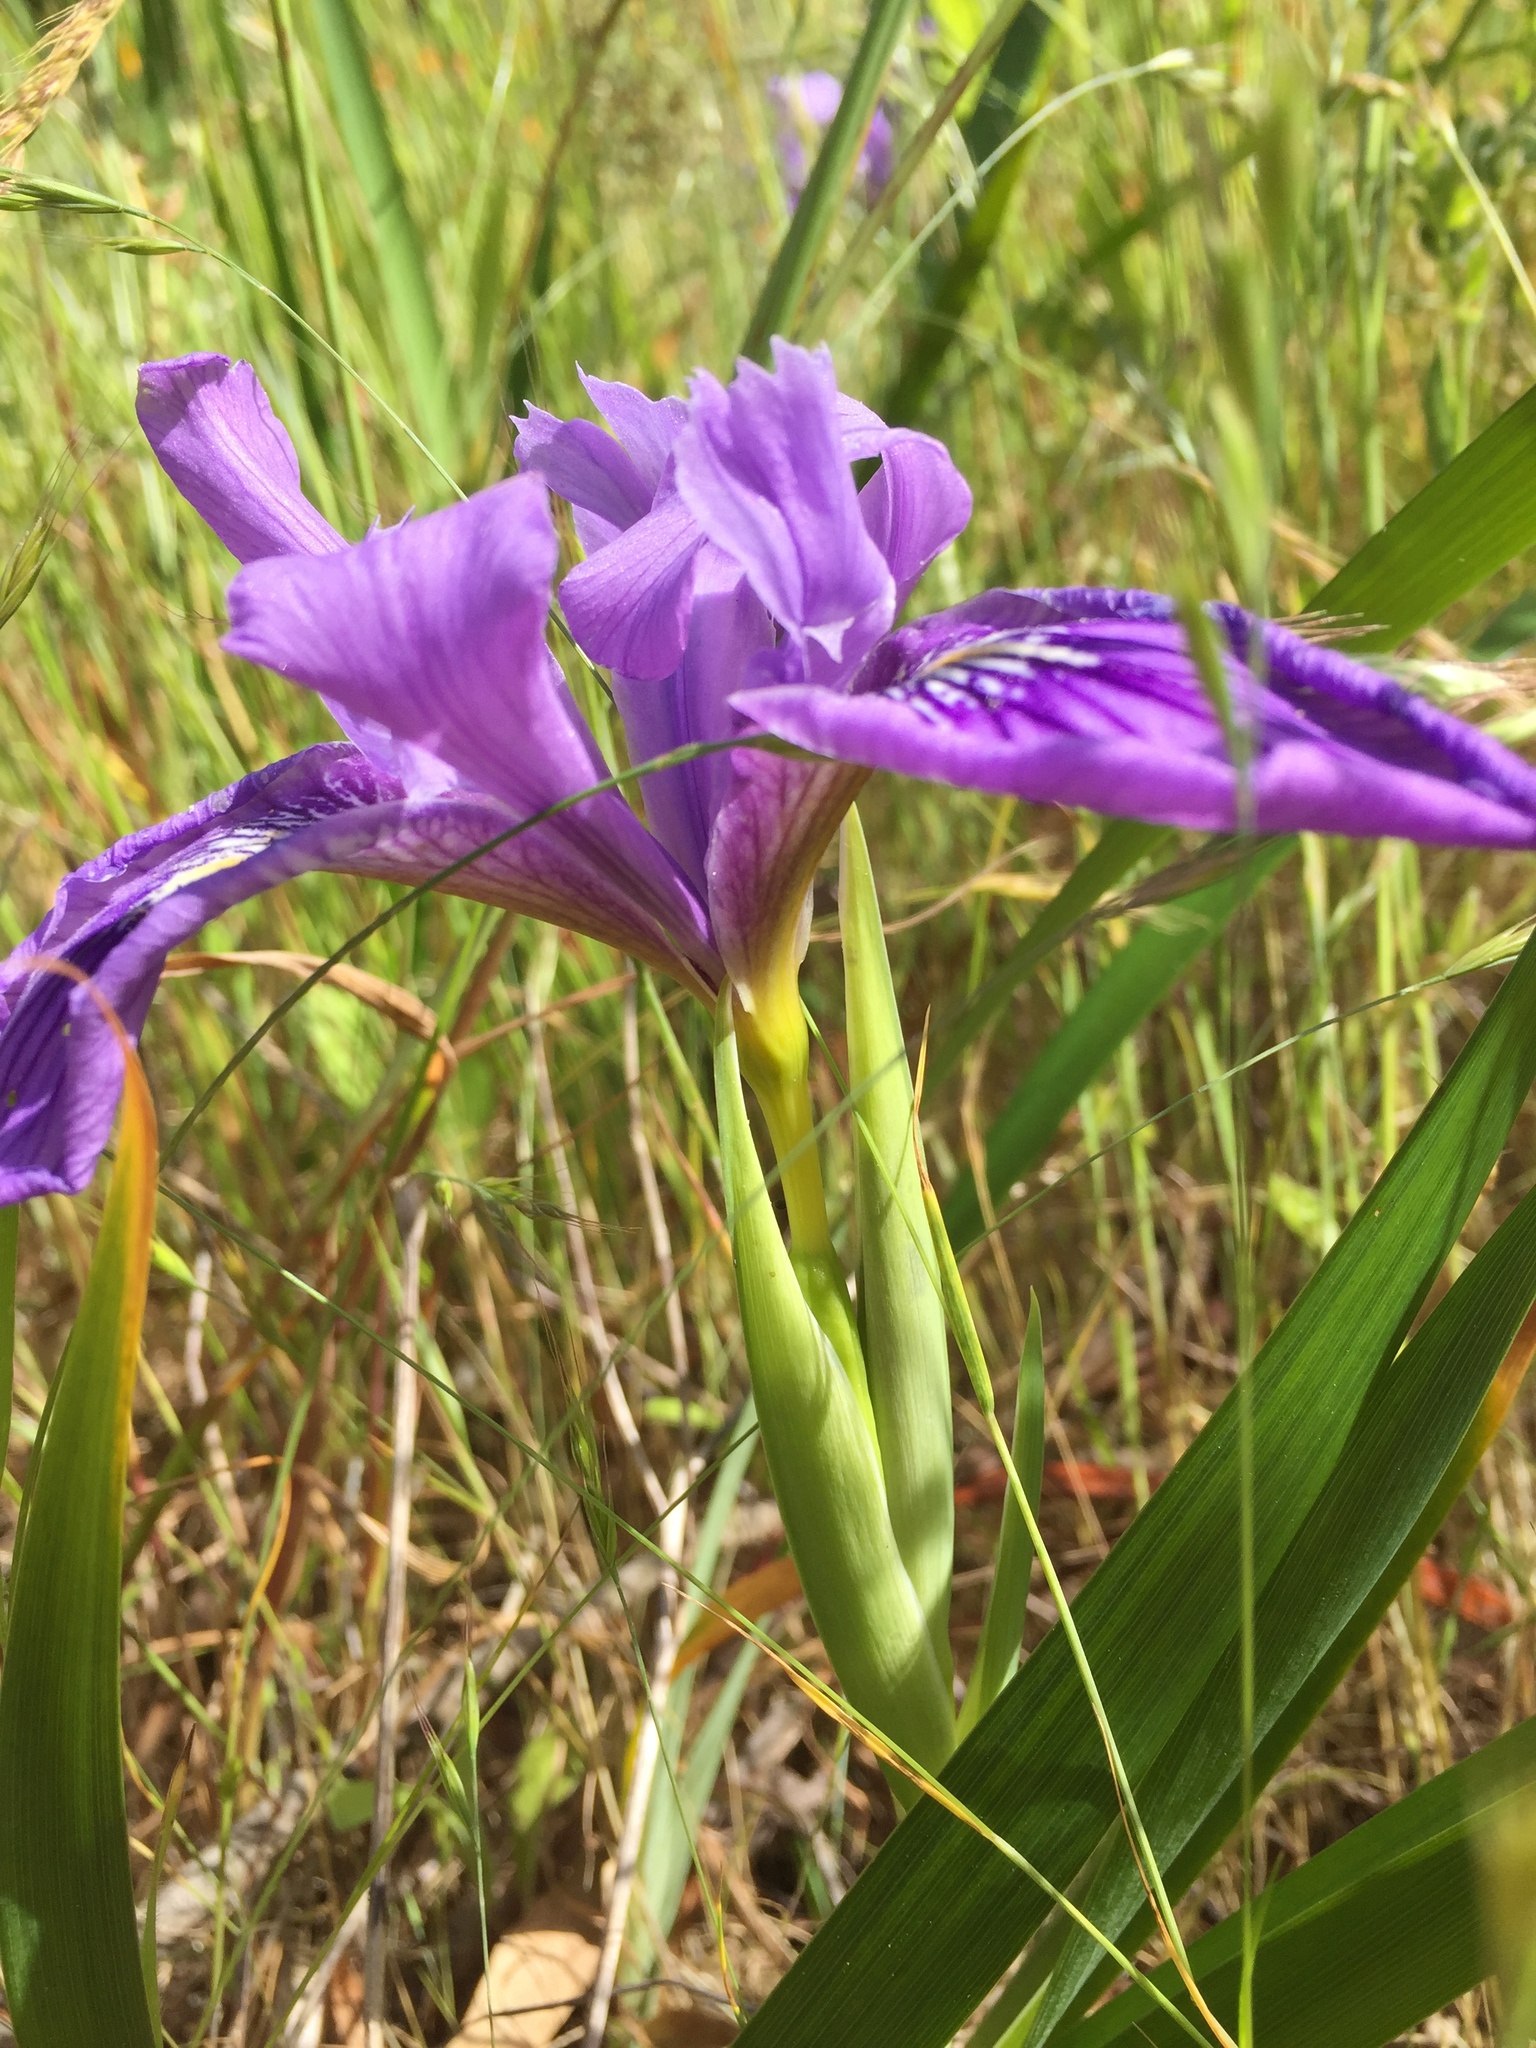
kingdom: Plantae
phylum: Tracheophyta
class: Liliopsida
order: Asparagales
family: Iridaceae
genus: Iris
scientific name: Iris douglasiana
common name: Marin iris
